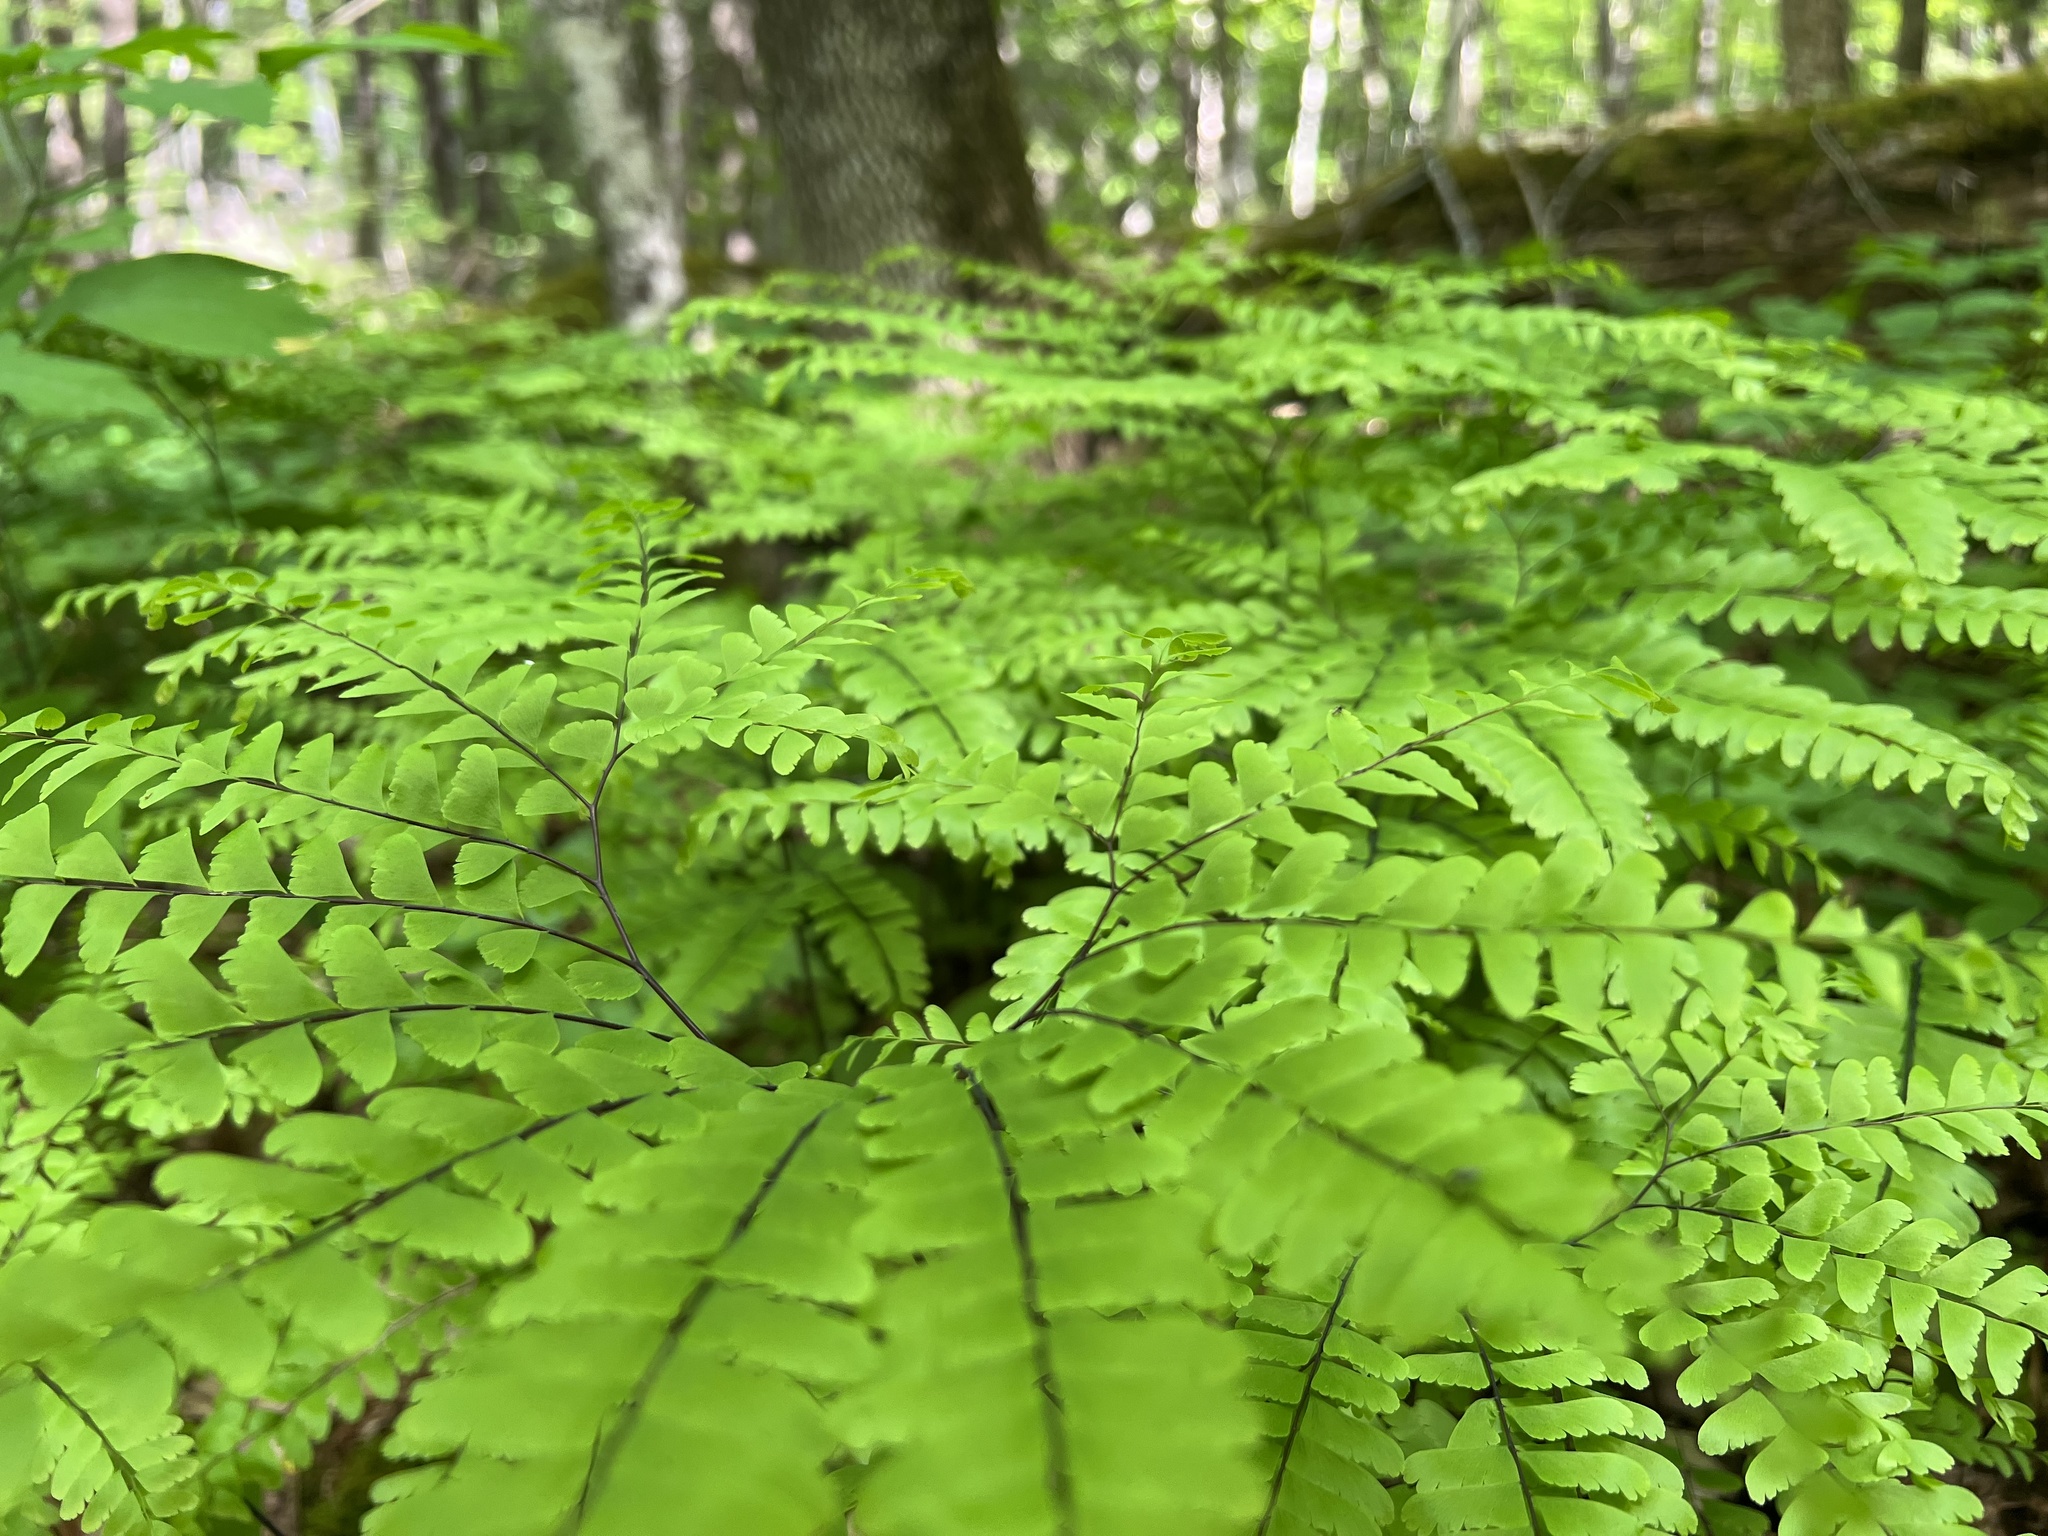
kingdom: Plantae
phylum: Tracheophyta
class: Polypodiopsida
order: Polypodiales
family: Pteridaceae
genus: Adiantum
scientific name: Adiantum pedatum
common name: Five-finger fern
